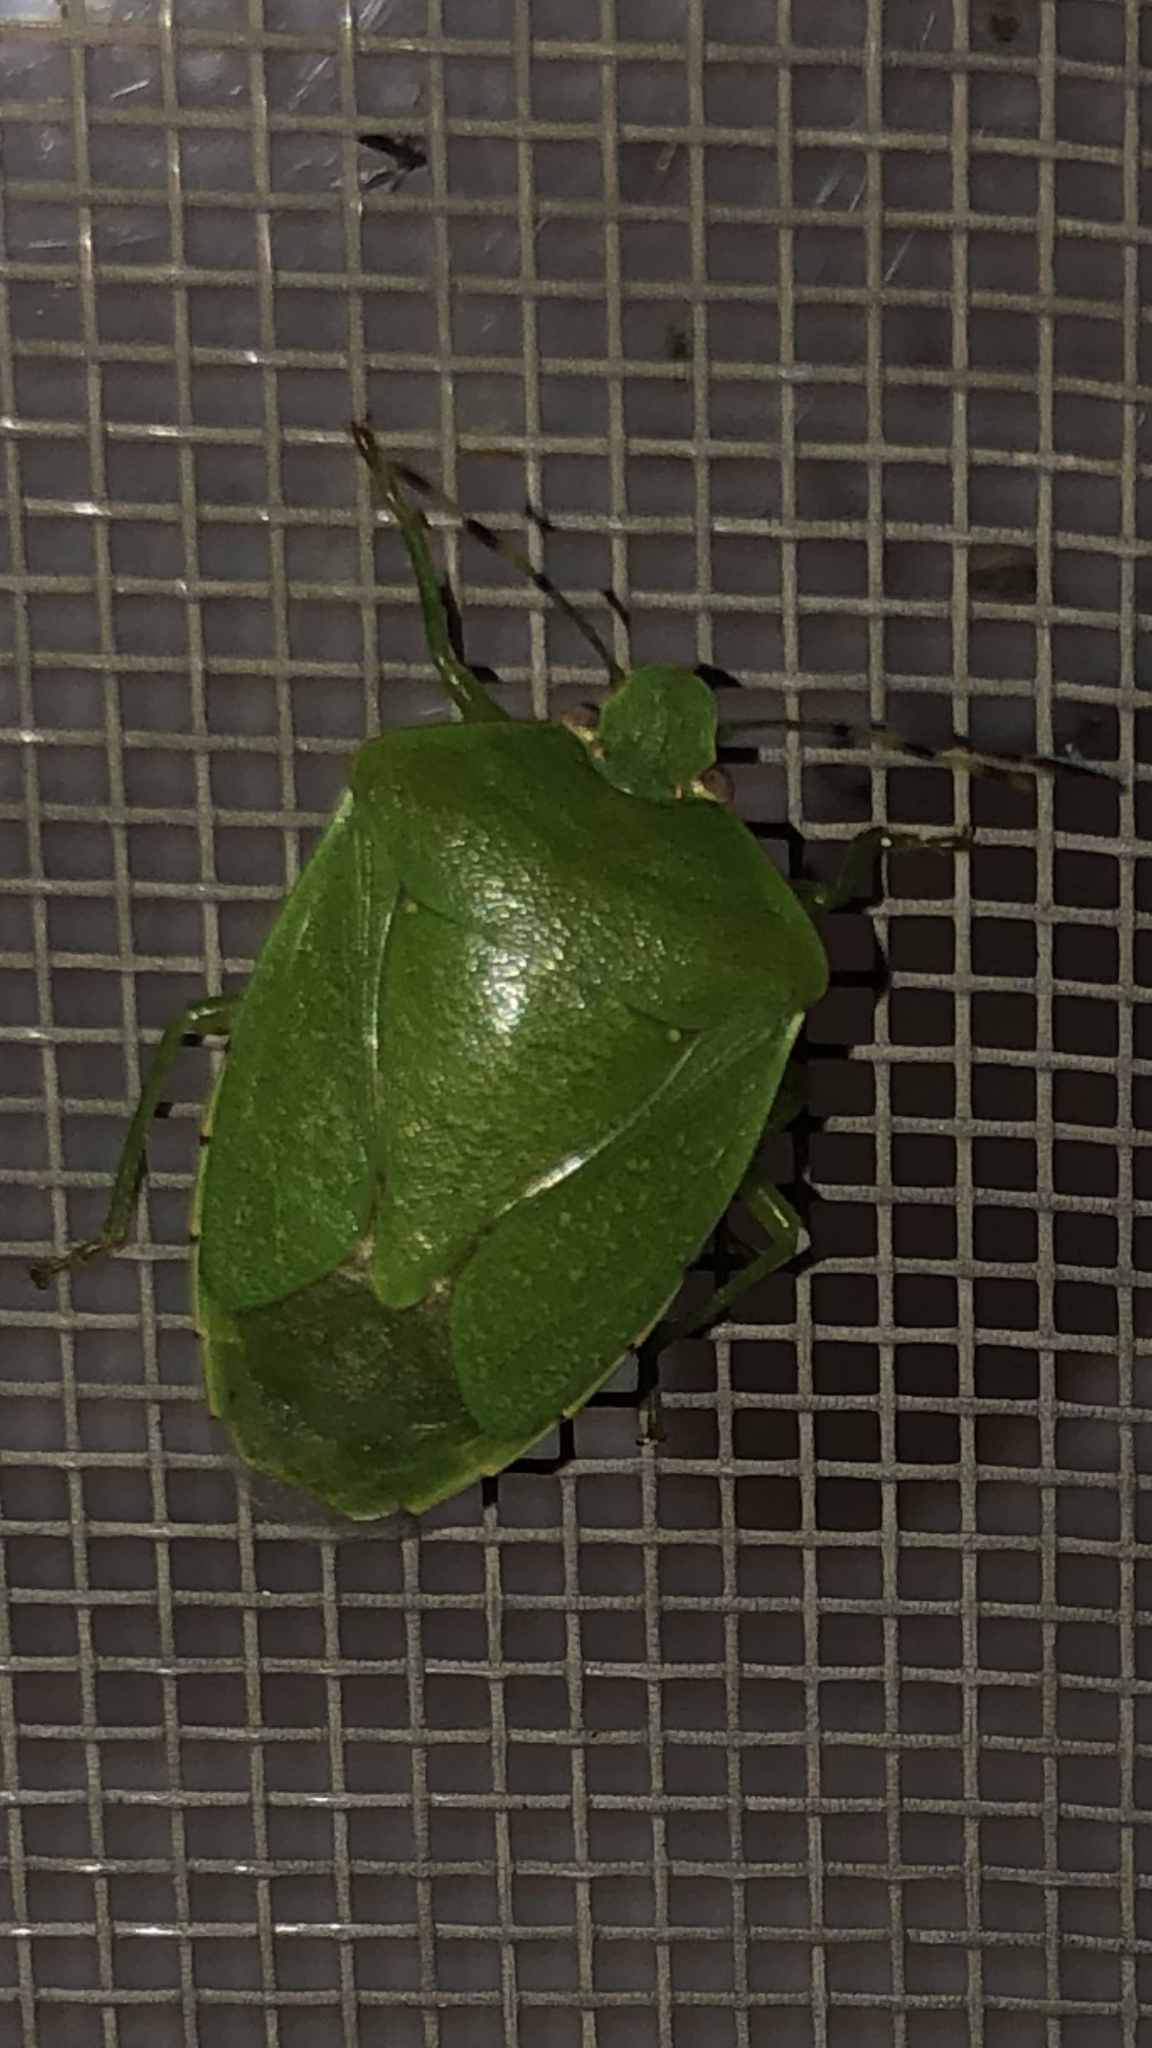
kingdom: Animalia
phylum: Arthropoda
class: Insecta
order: Hemiptera
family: Pentatomidae
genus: Chinavia
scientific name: Chinavia hilaris
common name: Green stink bug
